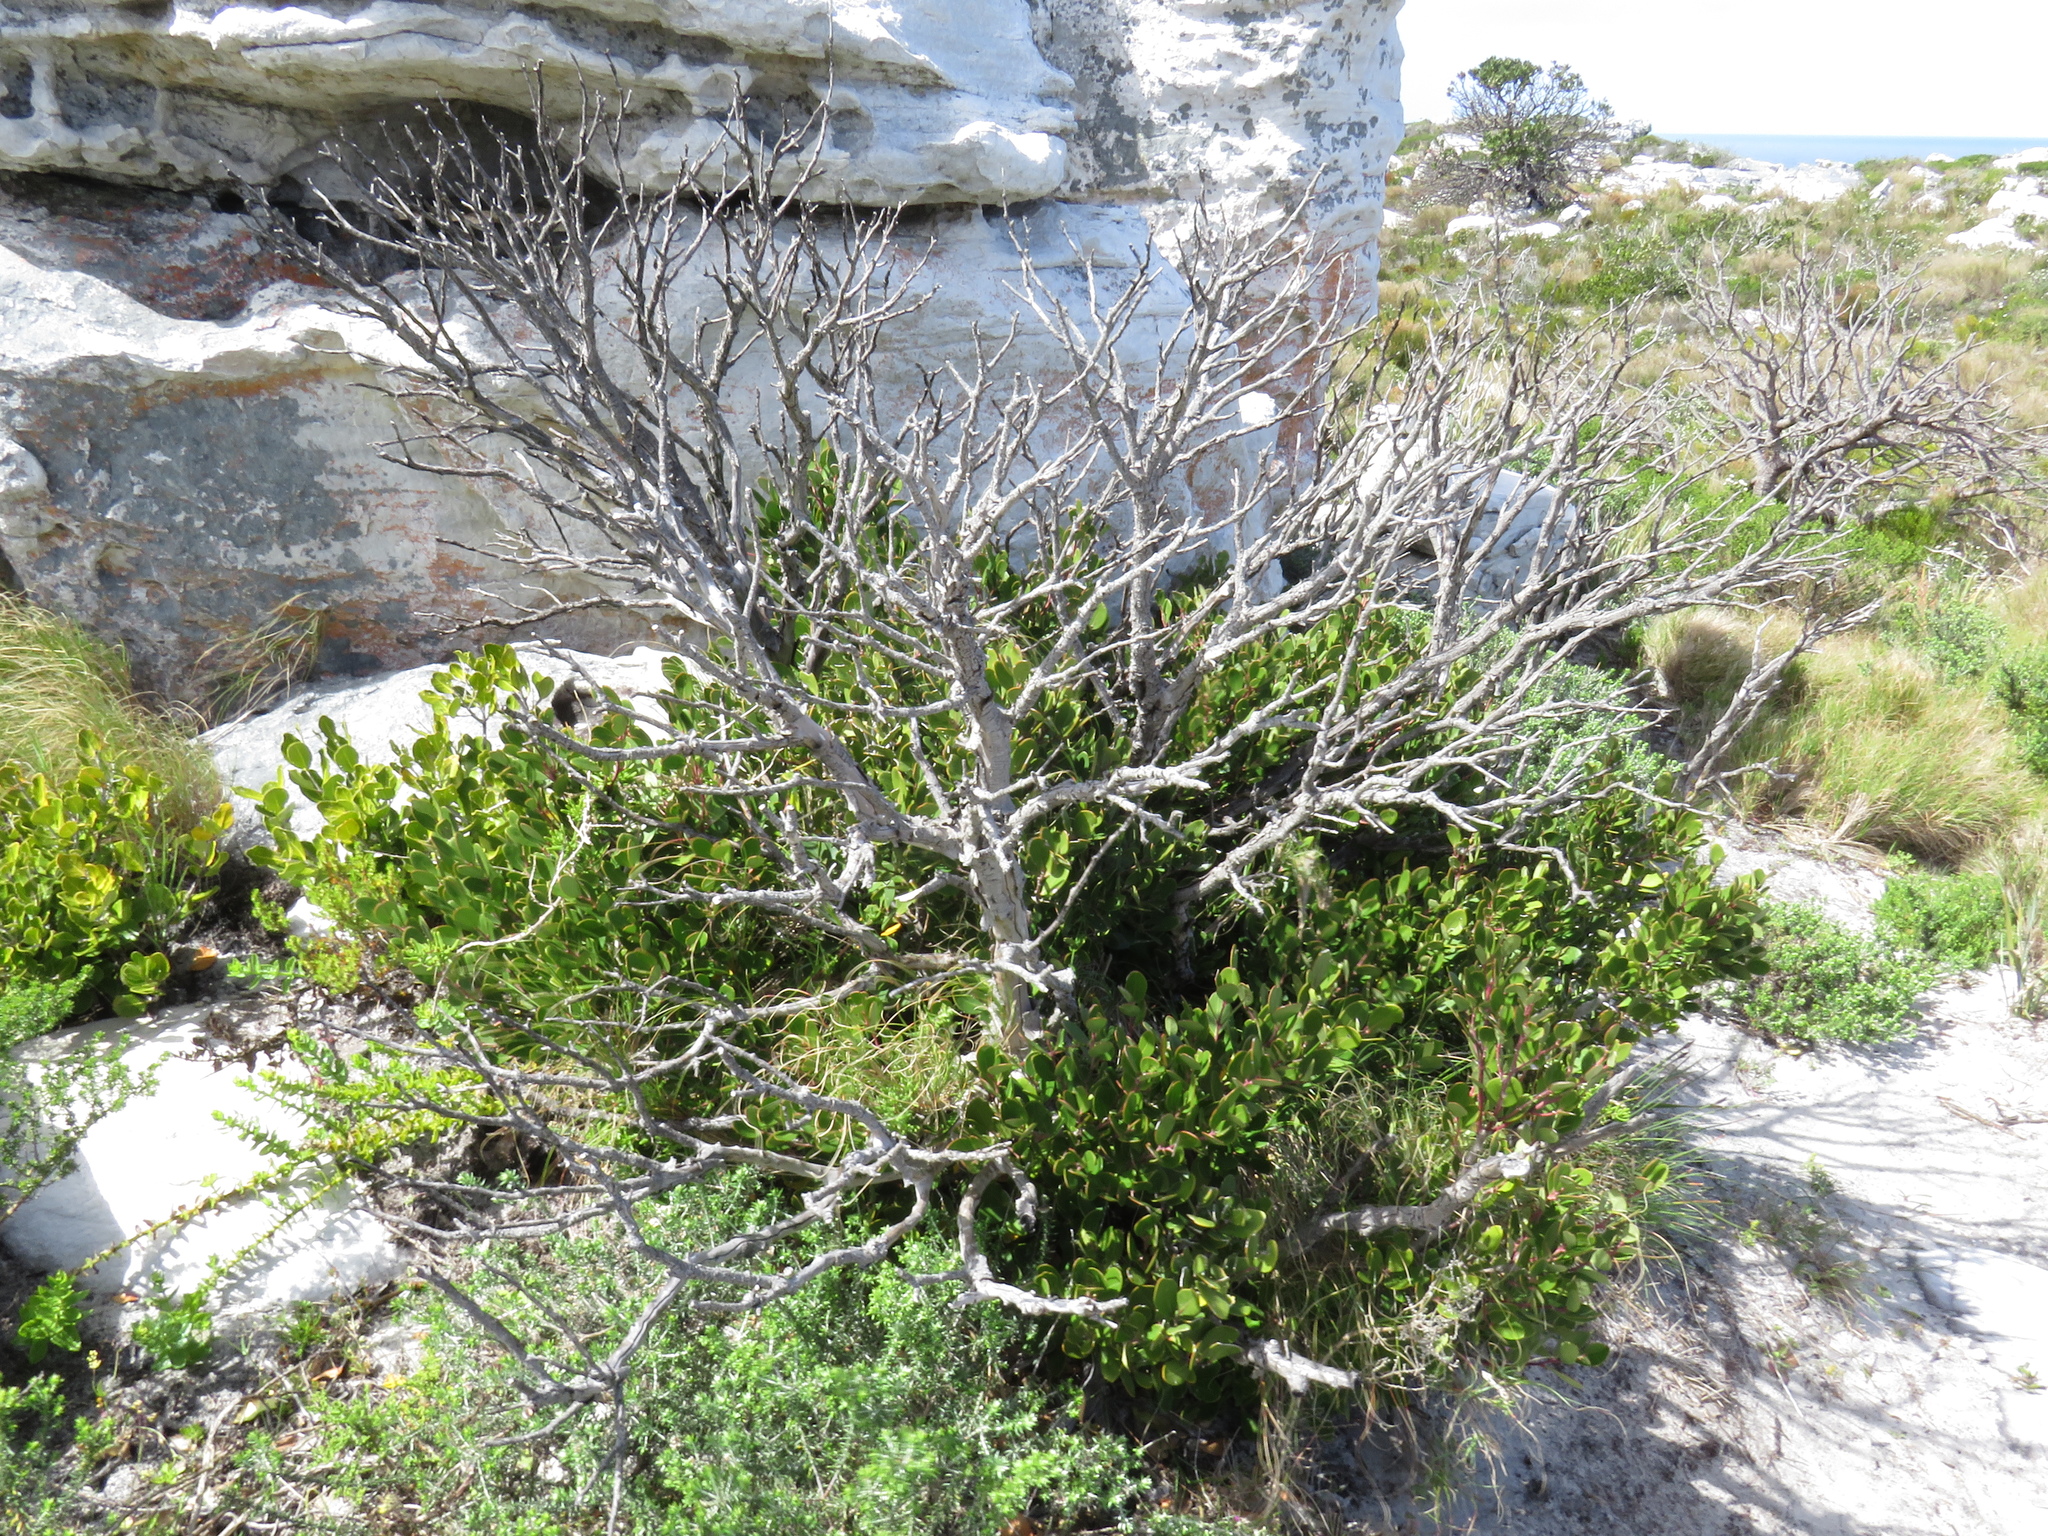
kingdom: Plantae
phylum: Tracheophyta
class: Magnoliopsida
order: Celastrales
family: Celastraceae
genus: Pterocelastrus
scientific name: Pterocelastrus tricuspidatus
